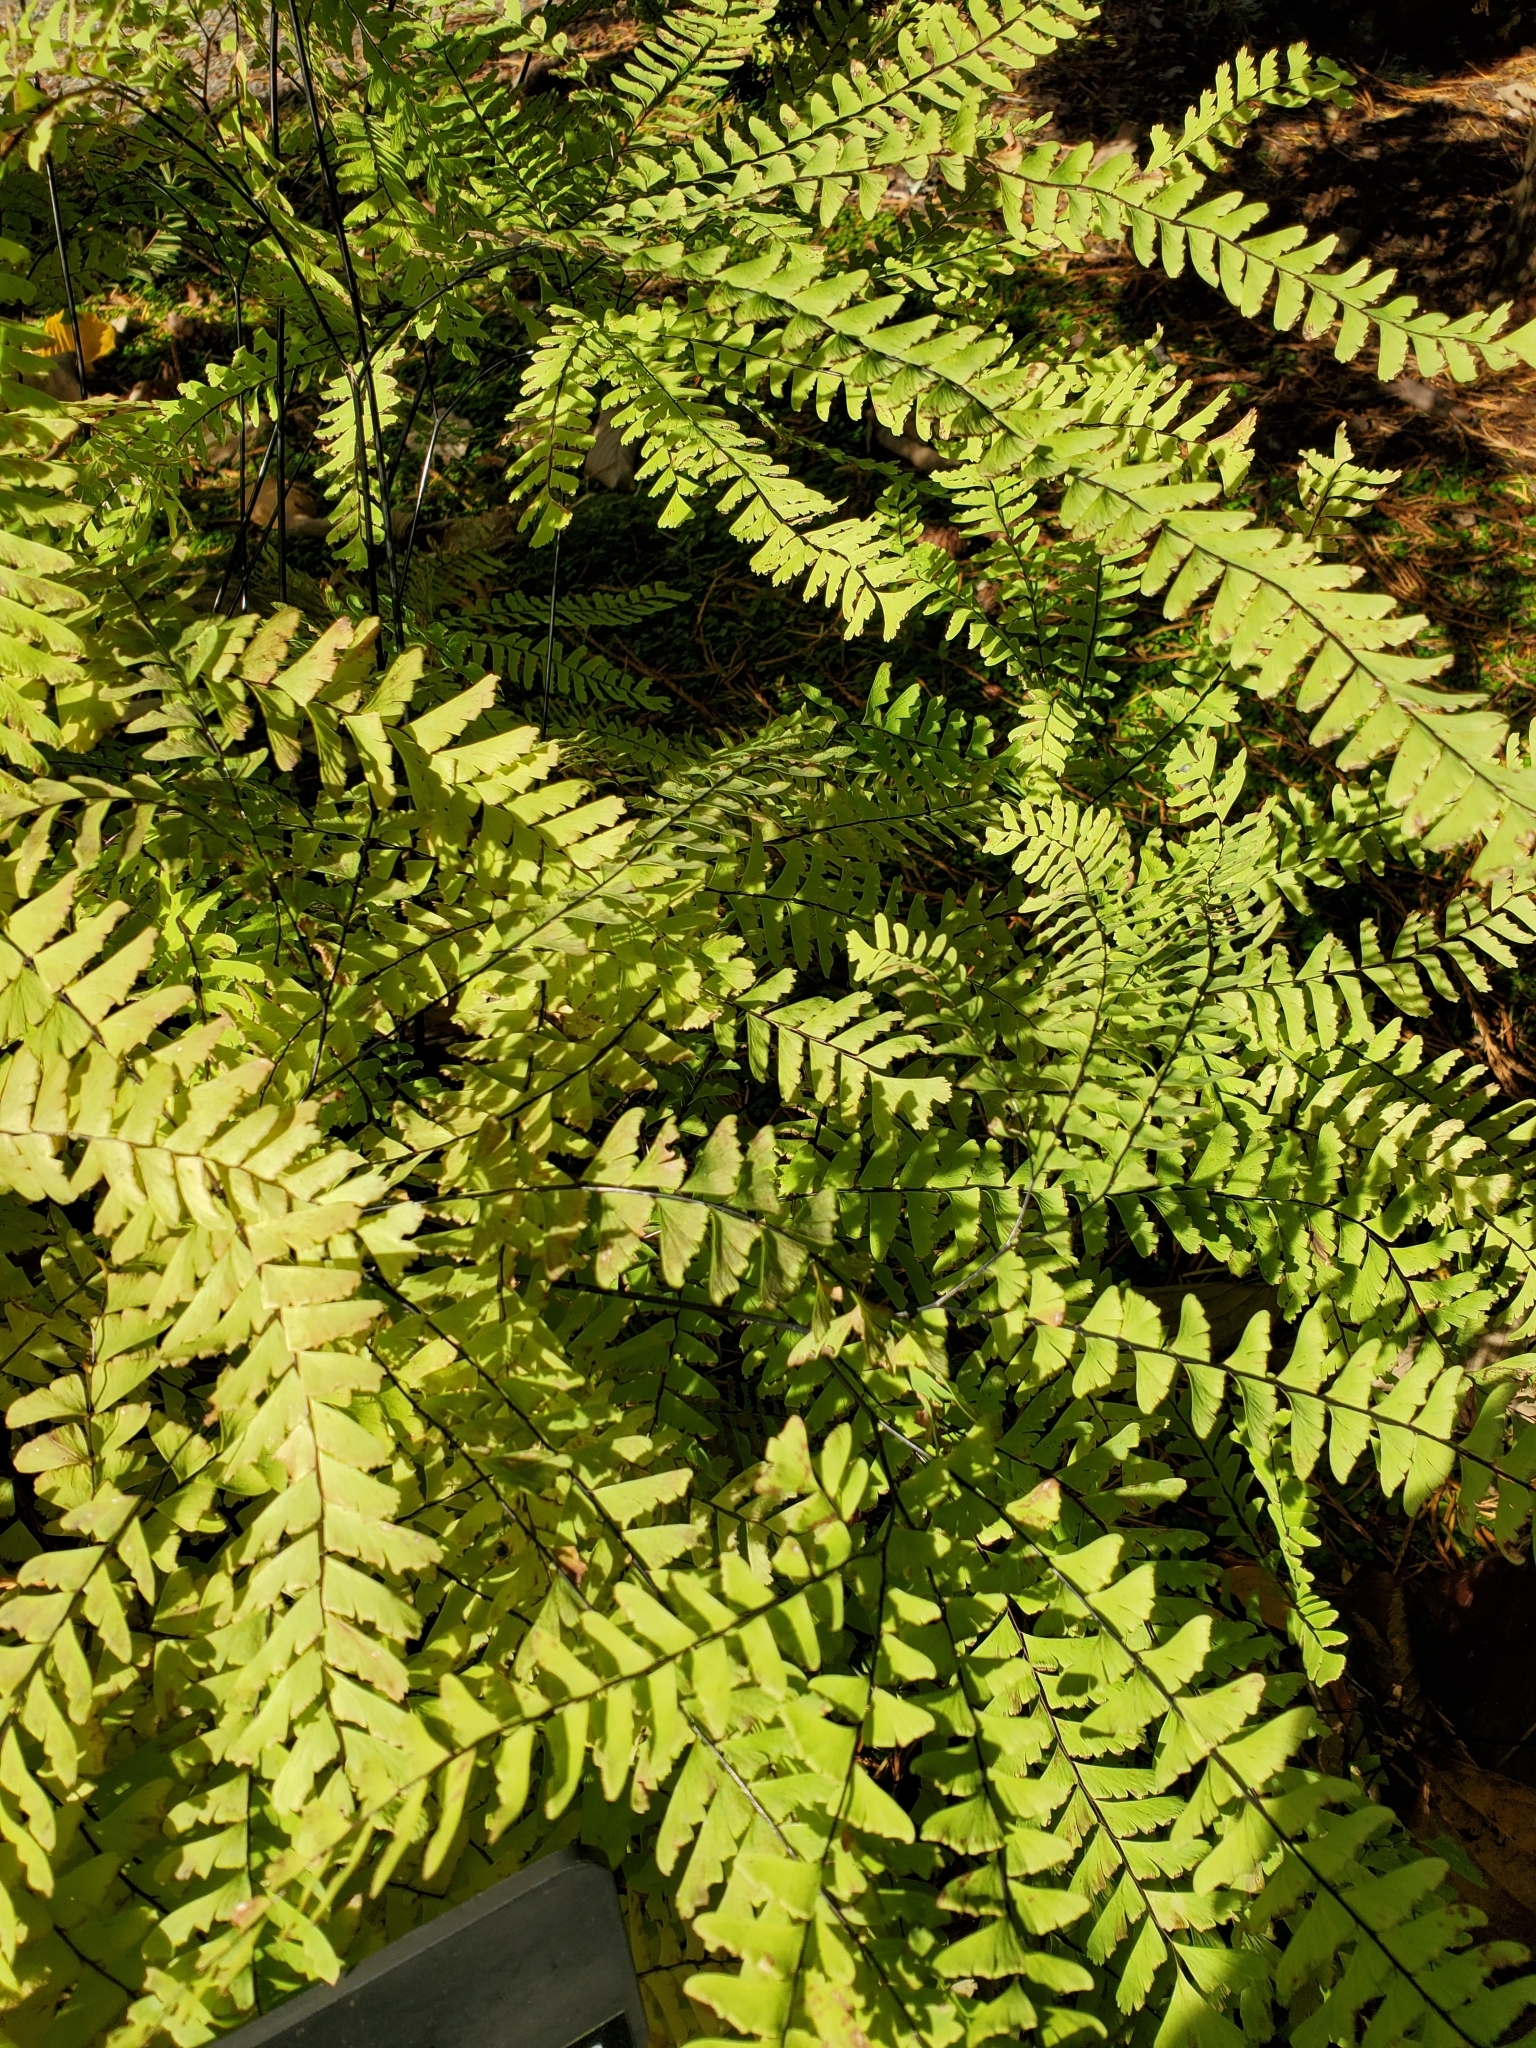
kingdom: Plantae
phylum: Tracheophyta
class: Polypodiopsida
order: Polypodiales
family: Pteridaceae
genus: Adiantum
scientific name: Adiantum aleuticum
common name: Aleutian maidenhair fern
